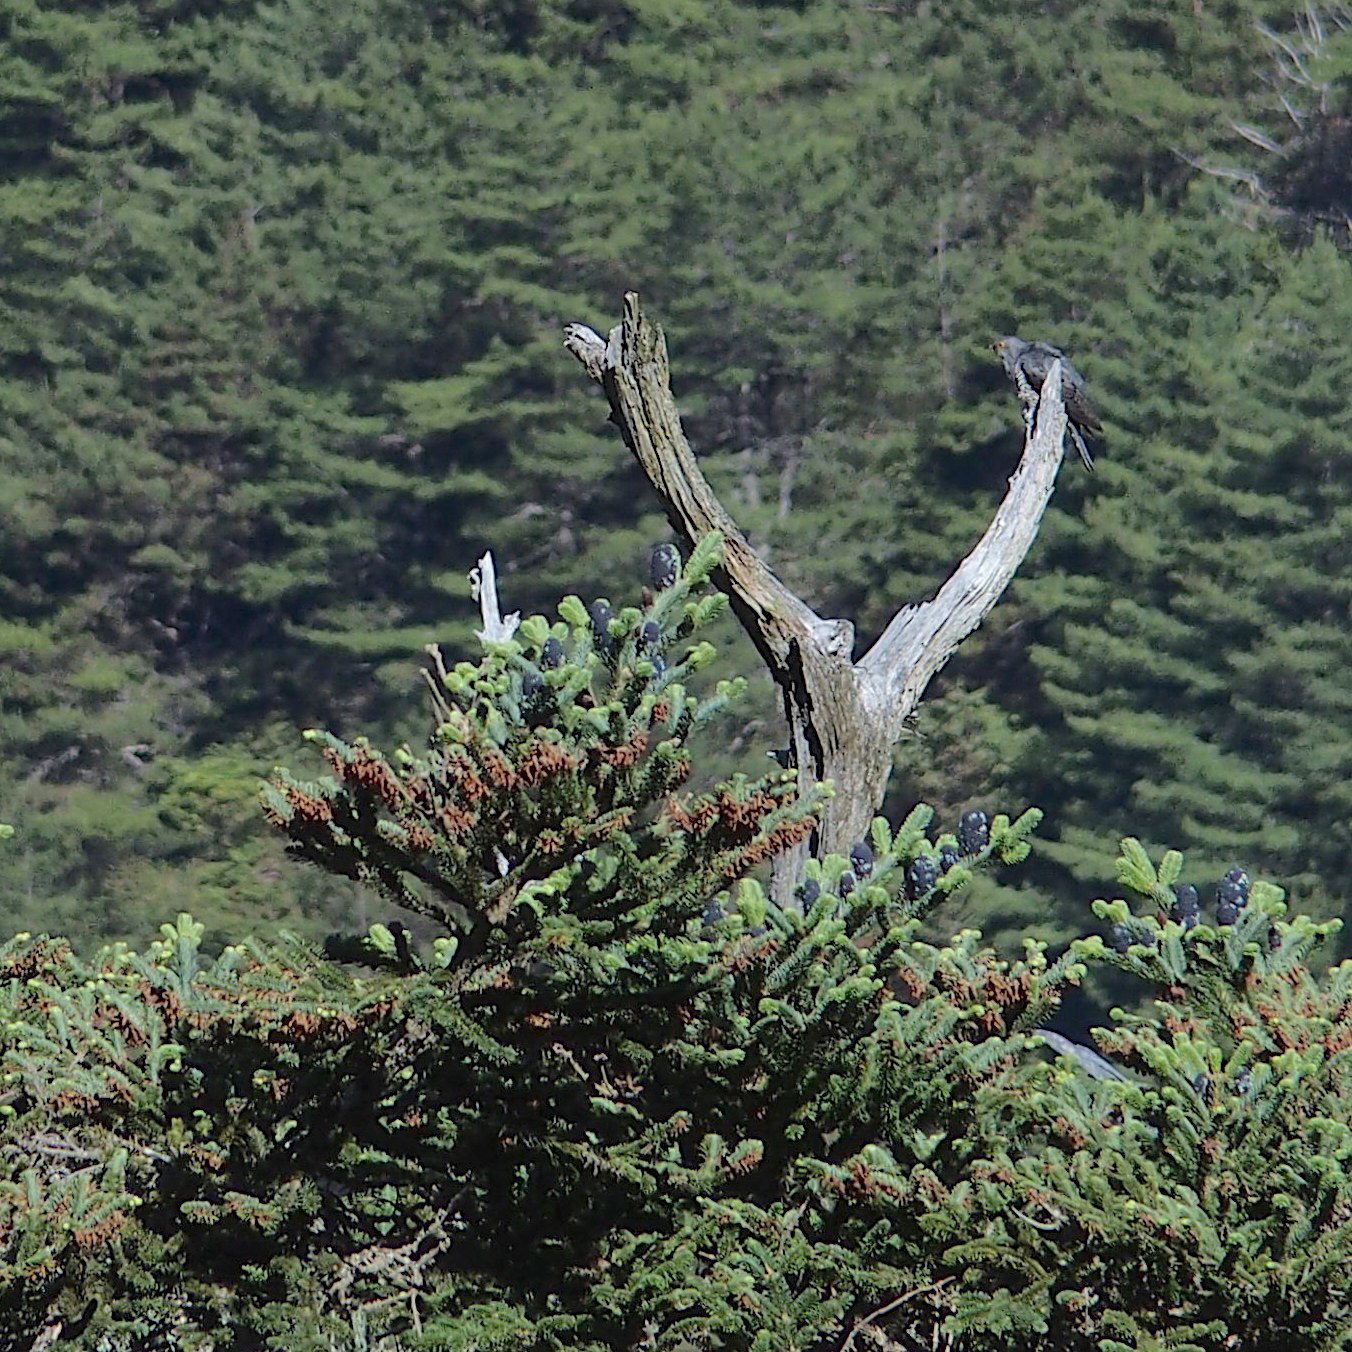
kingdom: Animalia
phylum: Chordata
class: Aves
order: Cuculiformes
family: Cuculidae
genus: Cuculus
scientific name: Cuculus optatus
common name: Oriental cuckoo
